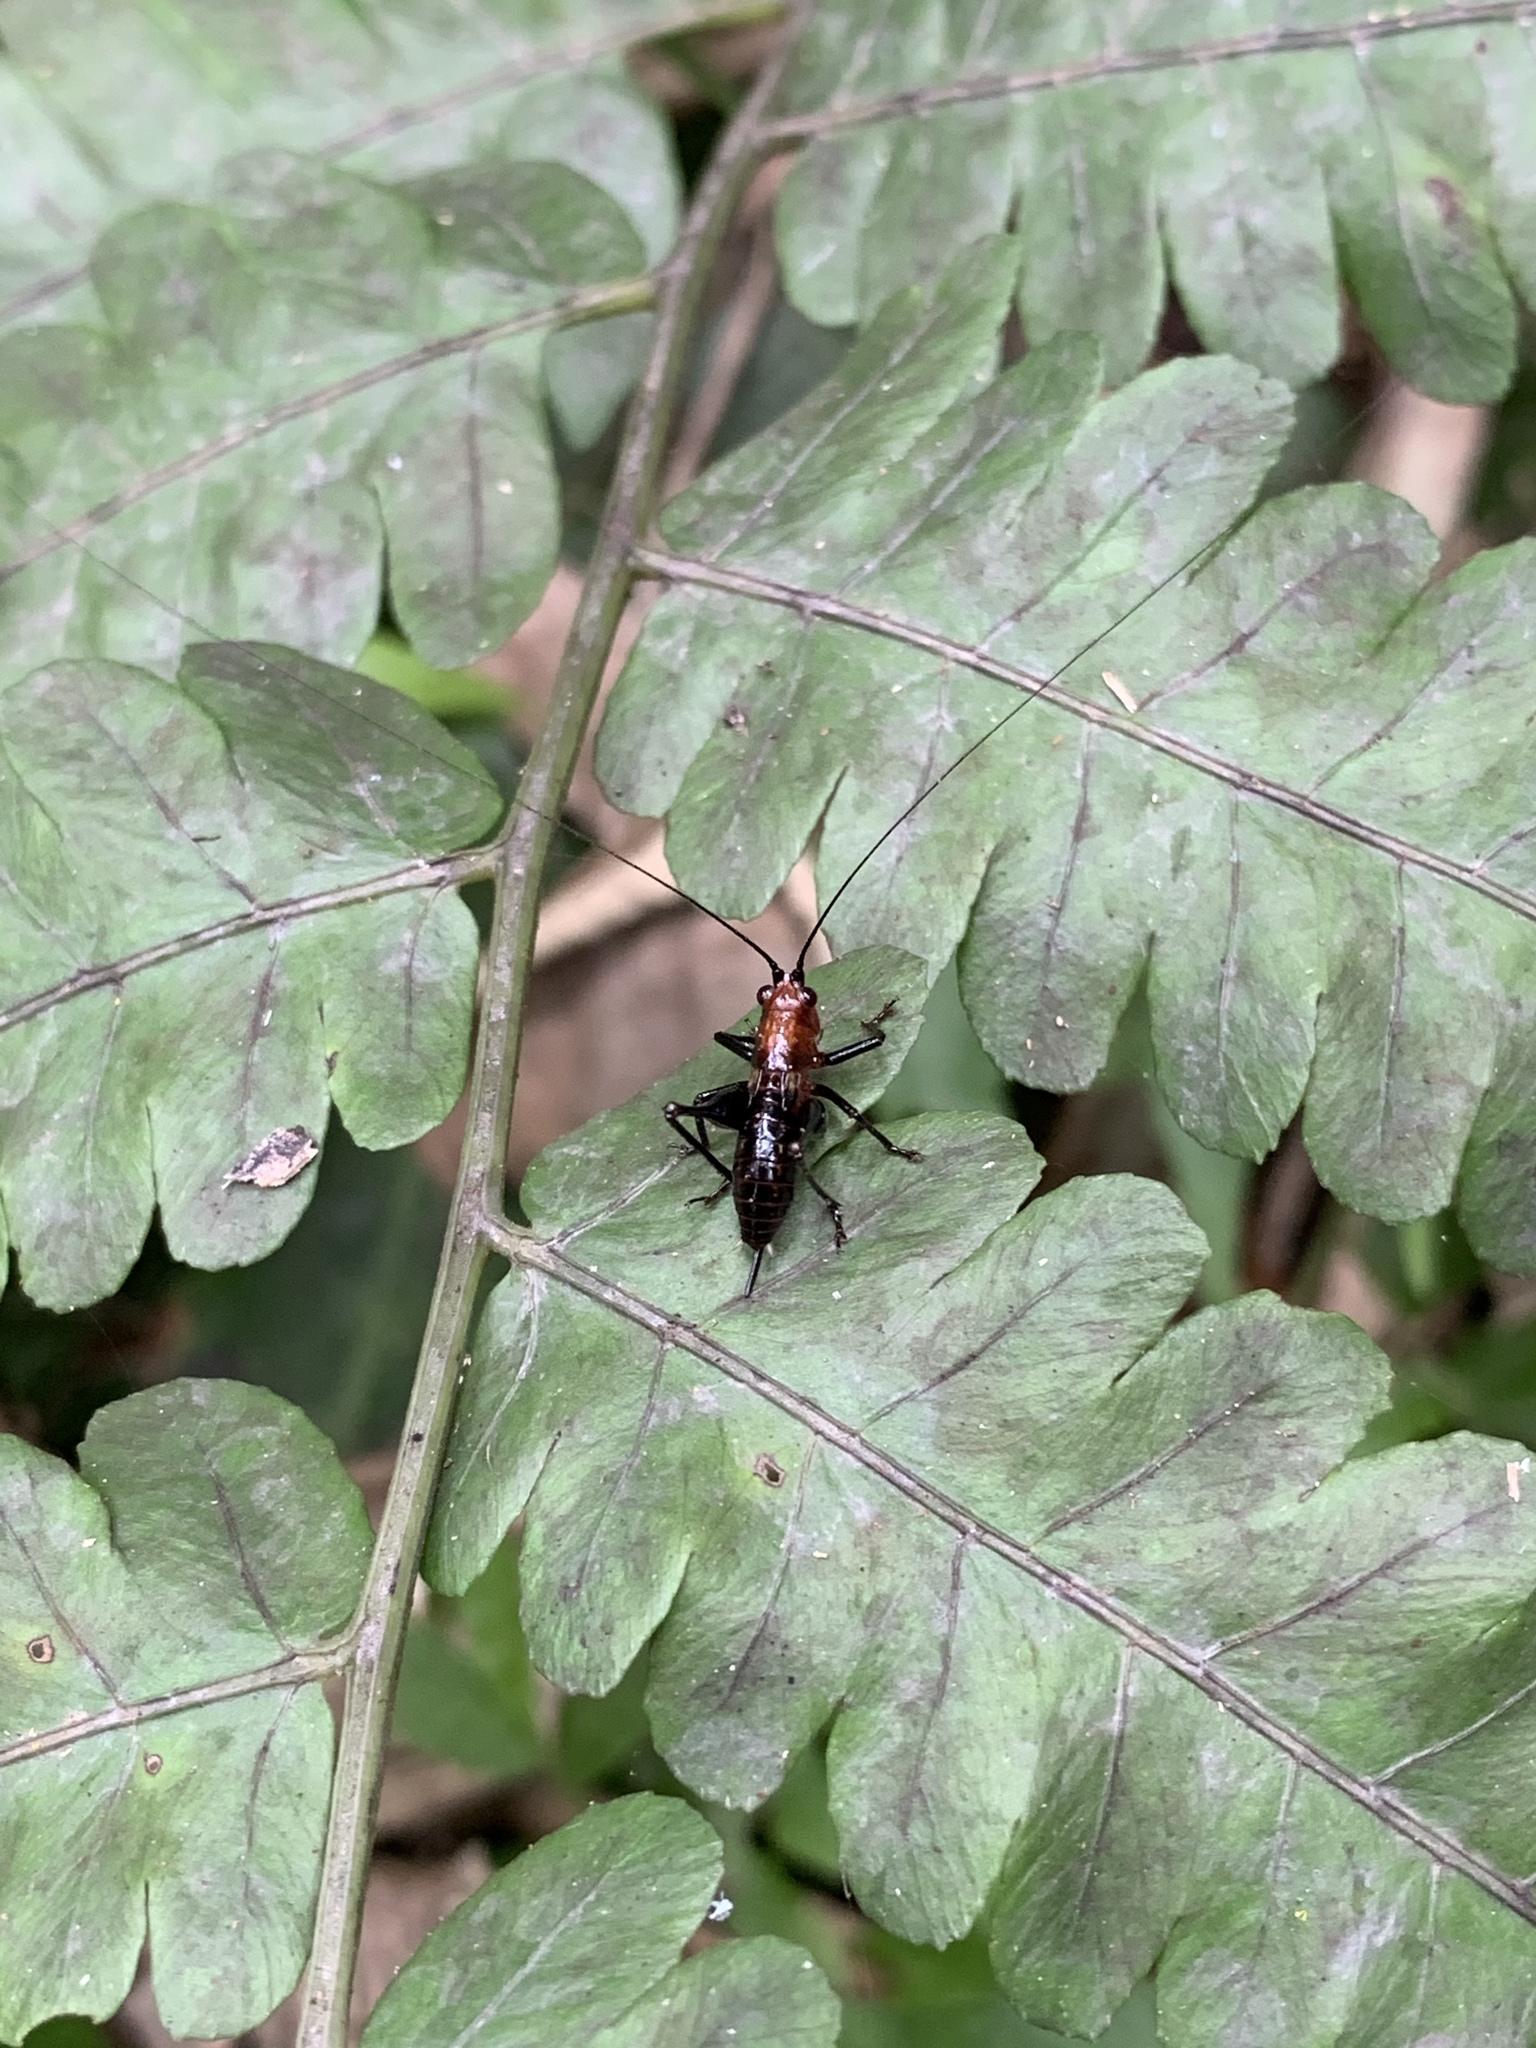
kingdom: Animalia
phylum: Arthropoda
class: Insecta
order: Orthoptera
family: Tettigoniidae
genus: Conocephalus
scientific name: Conocephalus melaenus
